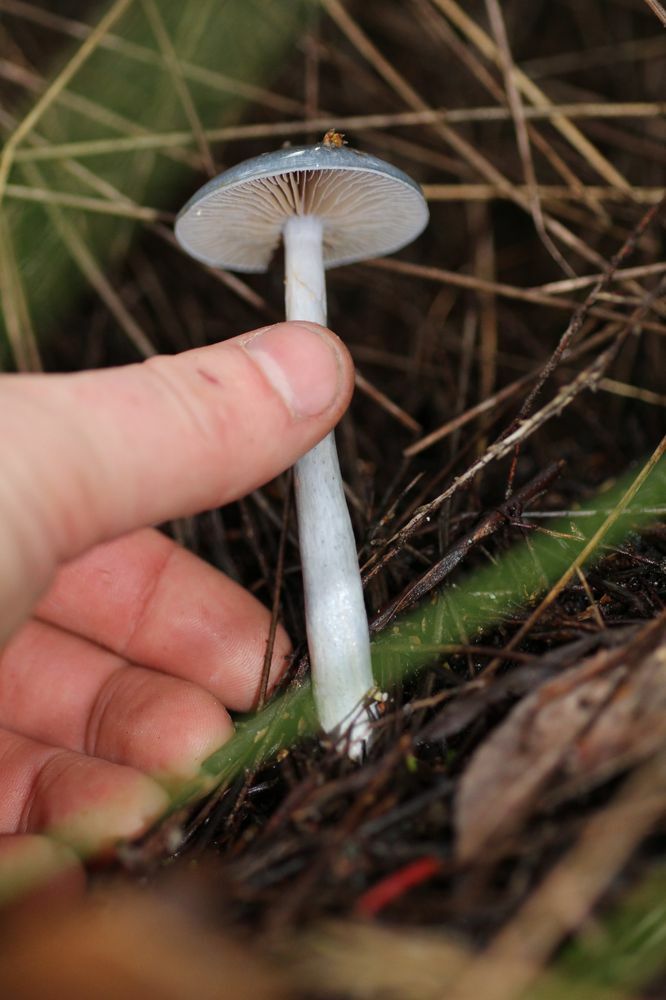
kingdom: Fungi
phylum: Basidiomycota
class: Agaricomycetes
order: Agaricales
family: Cortinariaceae
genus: Cortinarius
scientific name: Cortinarius rotundisporus
